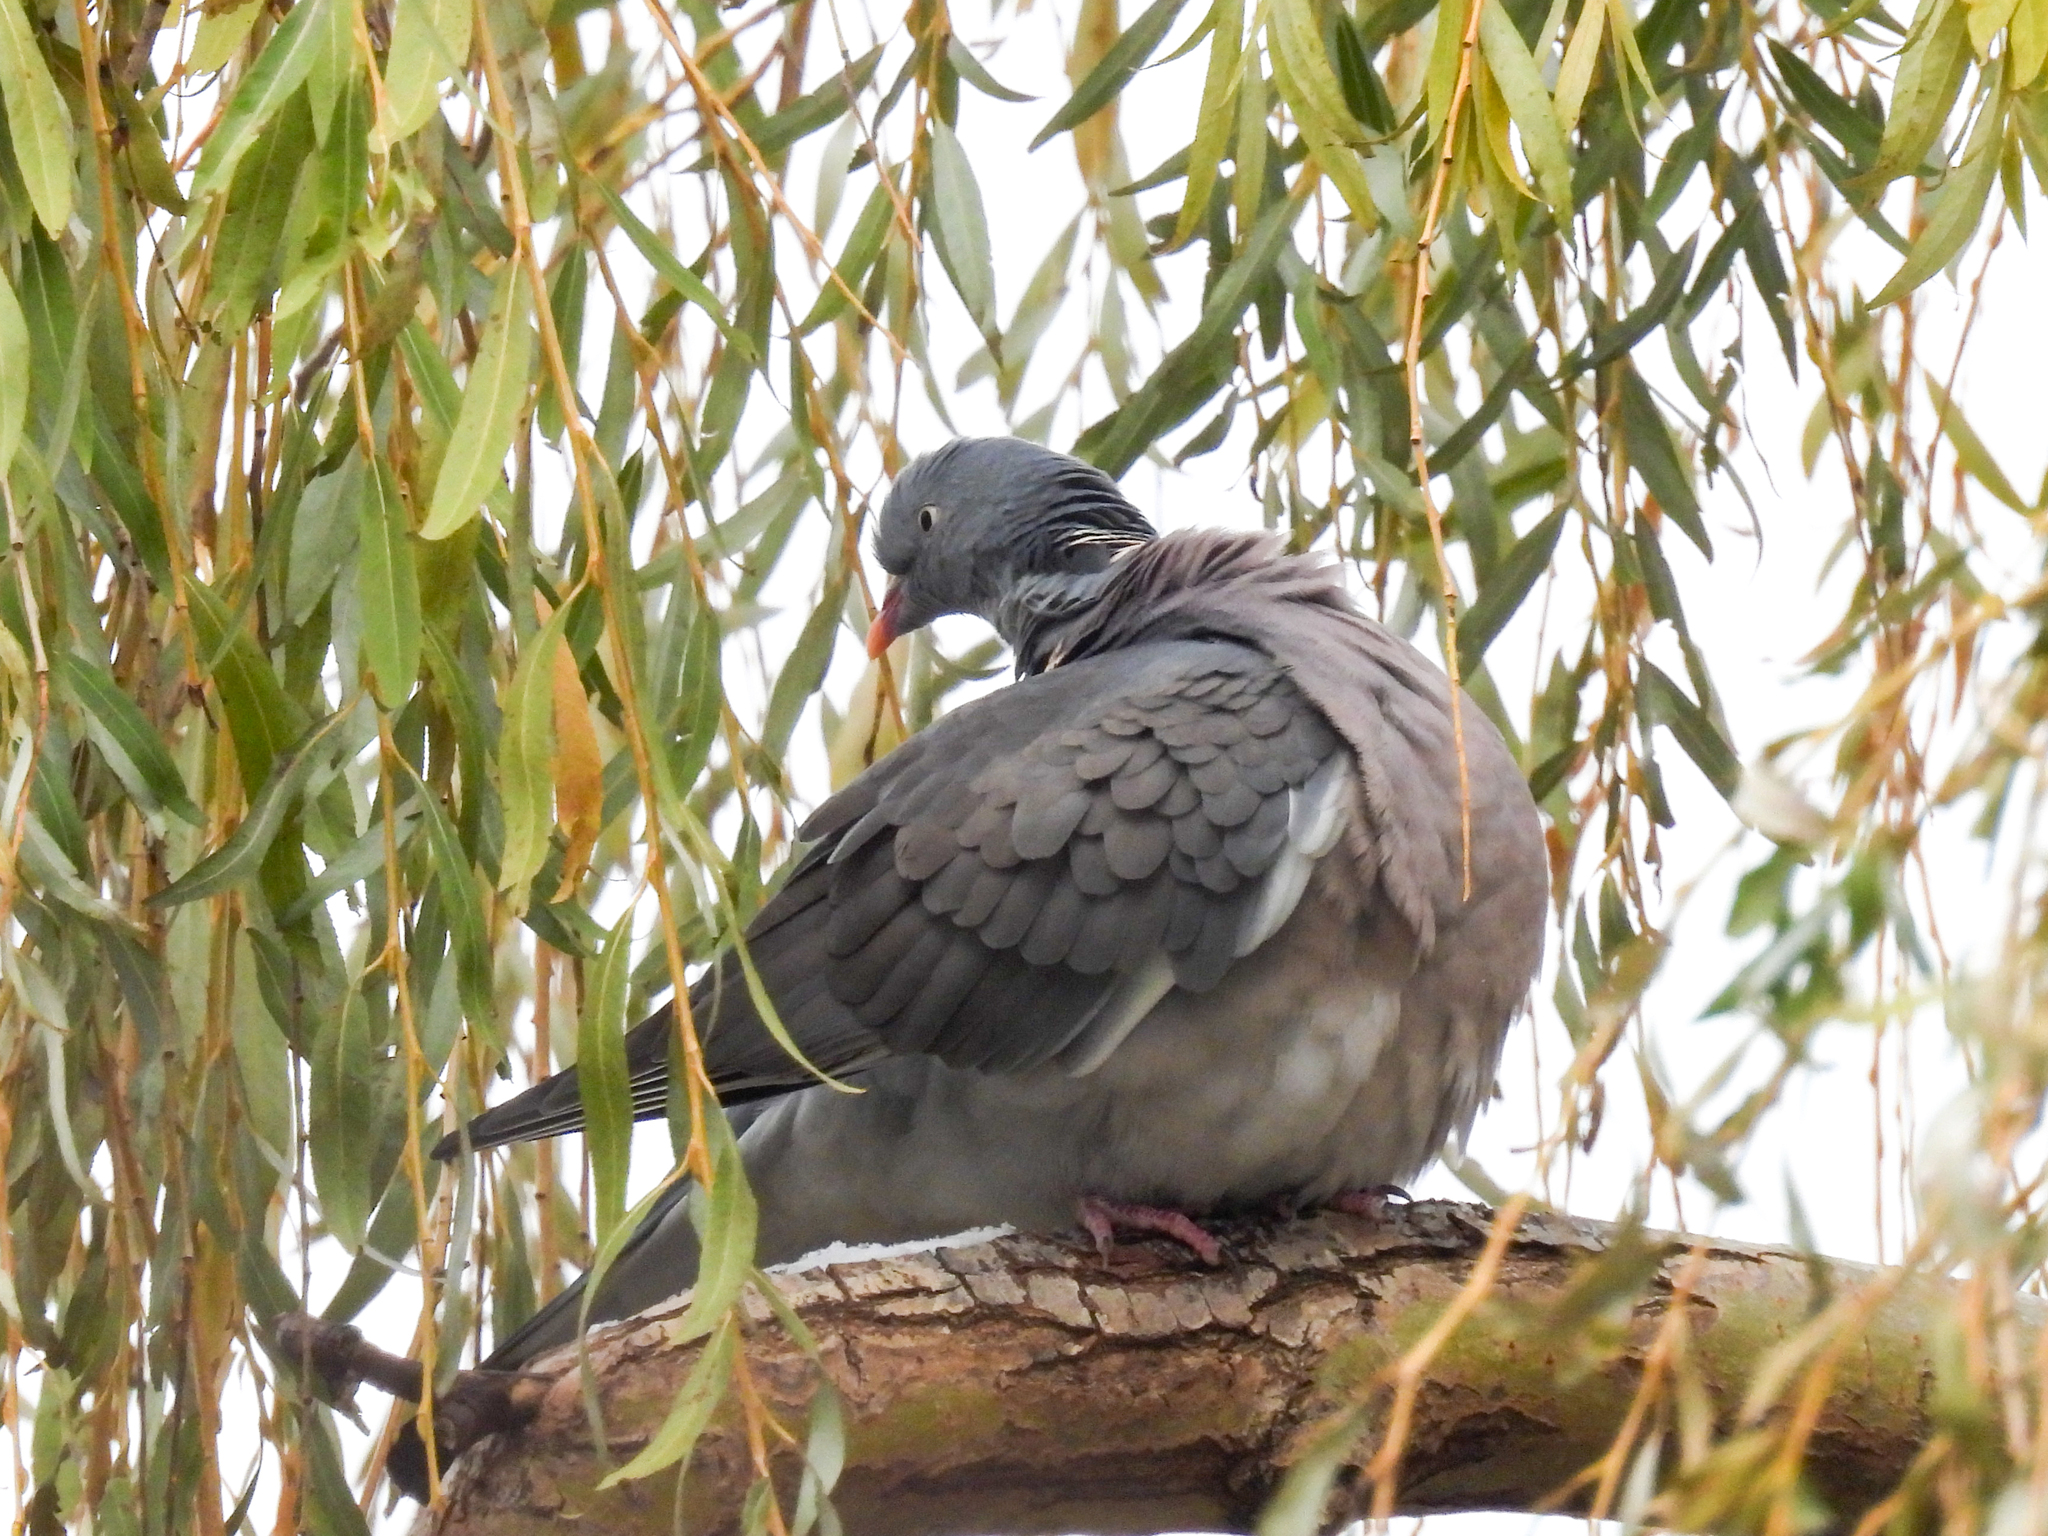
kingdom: Animalia
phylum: Chordata
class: Aves
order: Columbiformes
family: Columbidae
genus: Columba
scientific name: Columba palumbus
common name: Common wood pigeon
